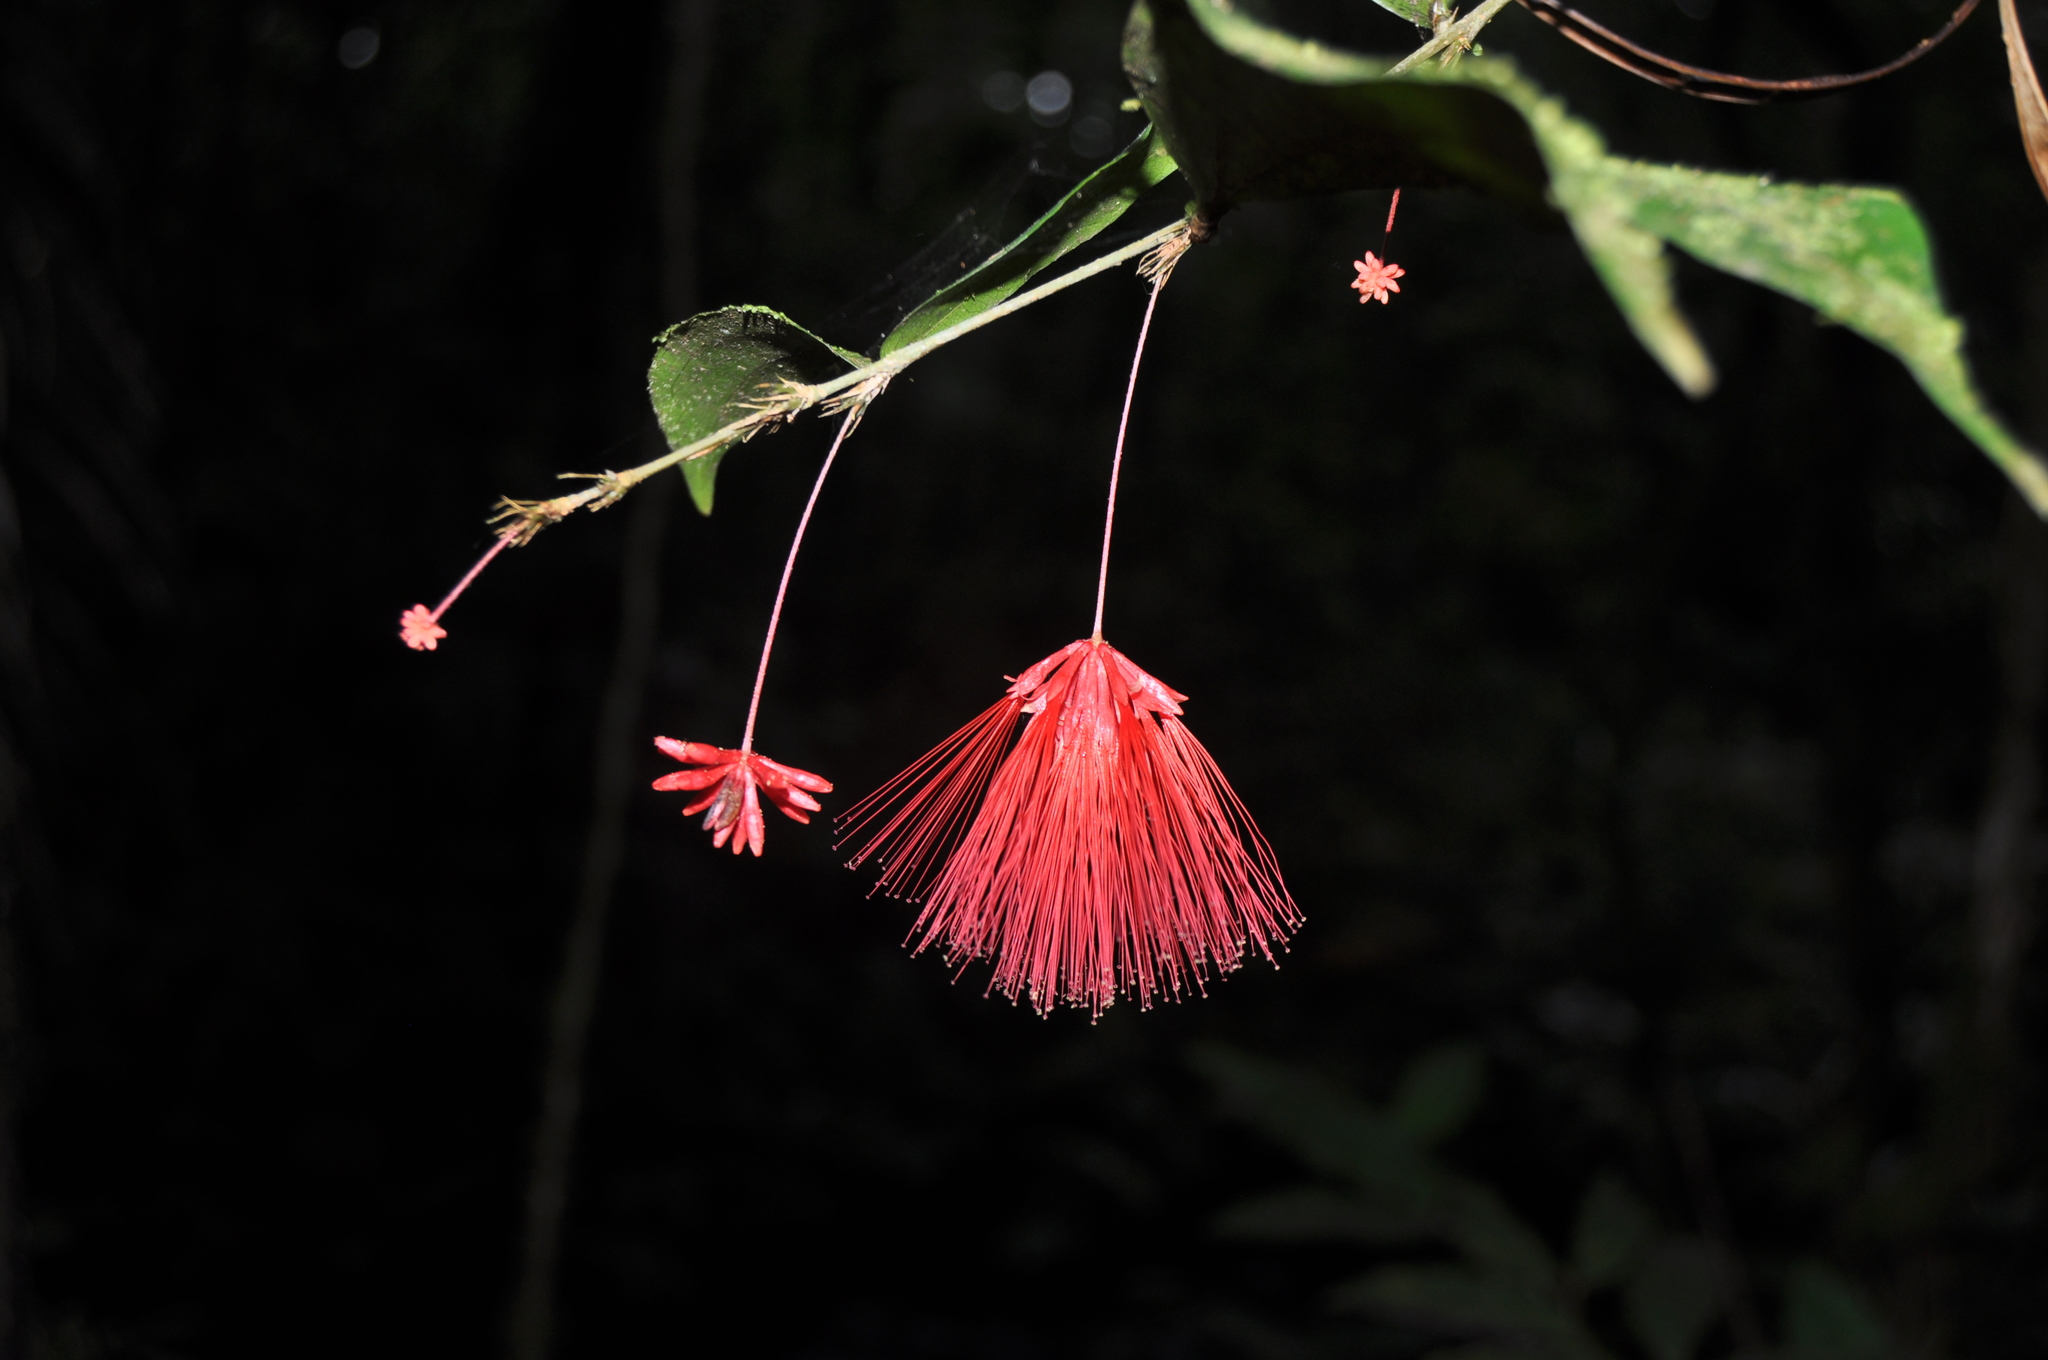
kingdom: Plantae
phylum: Tracheophyta
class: Magnoliopsida
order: Fabales
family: Fabaceae
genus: Calliandra
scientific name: Calliandra brenesii
